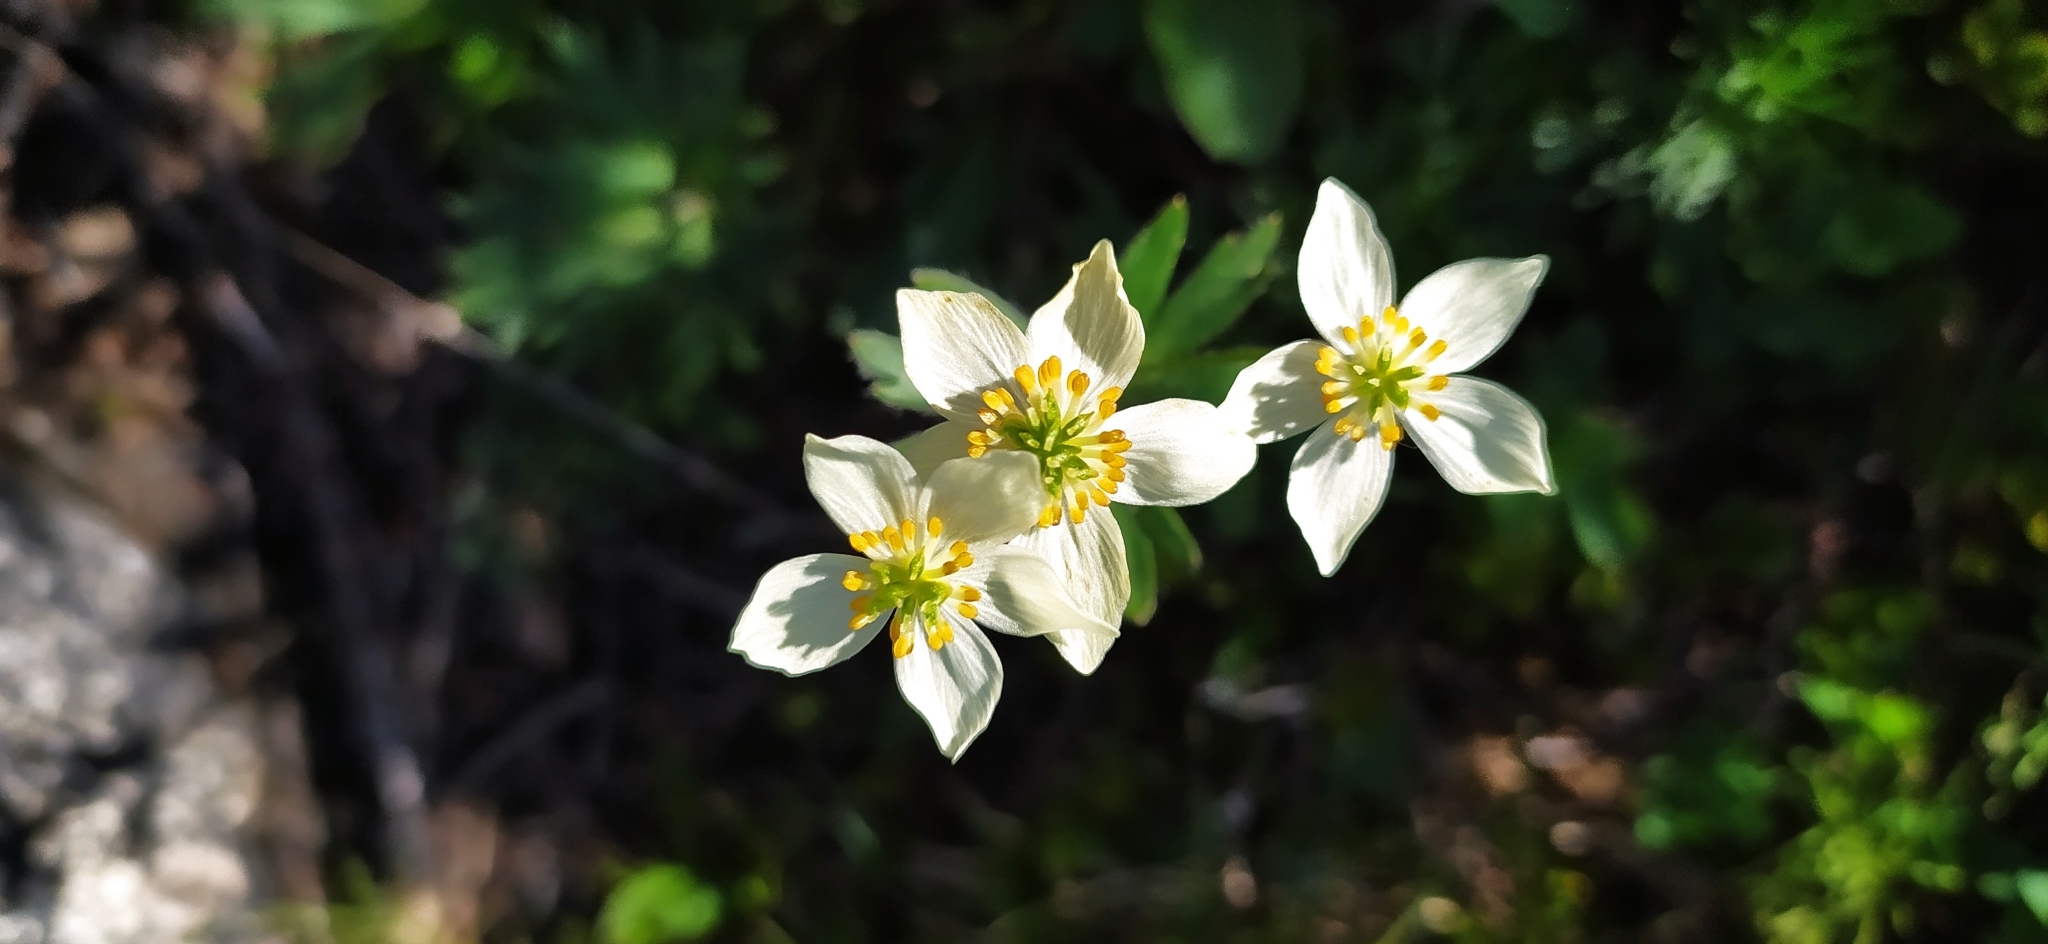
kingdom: Plantae
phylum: Tracheophyta
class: Magnoliopsida
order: Ranunculales
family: Ranunculaceae
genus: Anemonastrum
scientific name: Anemonastrum biarmiense
